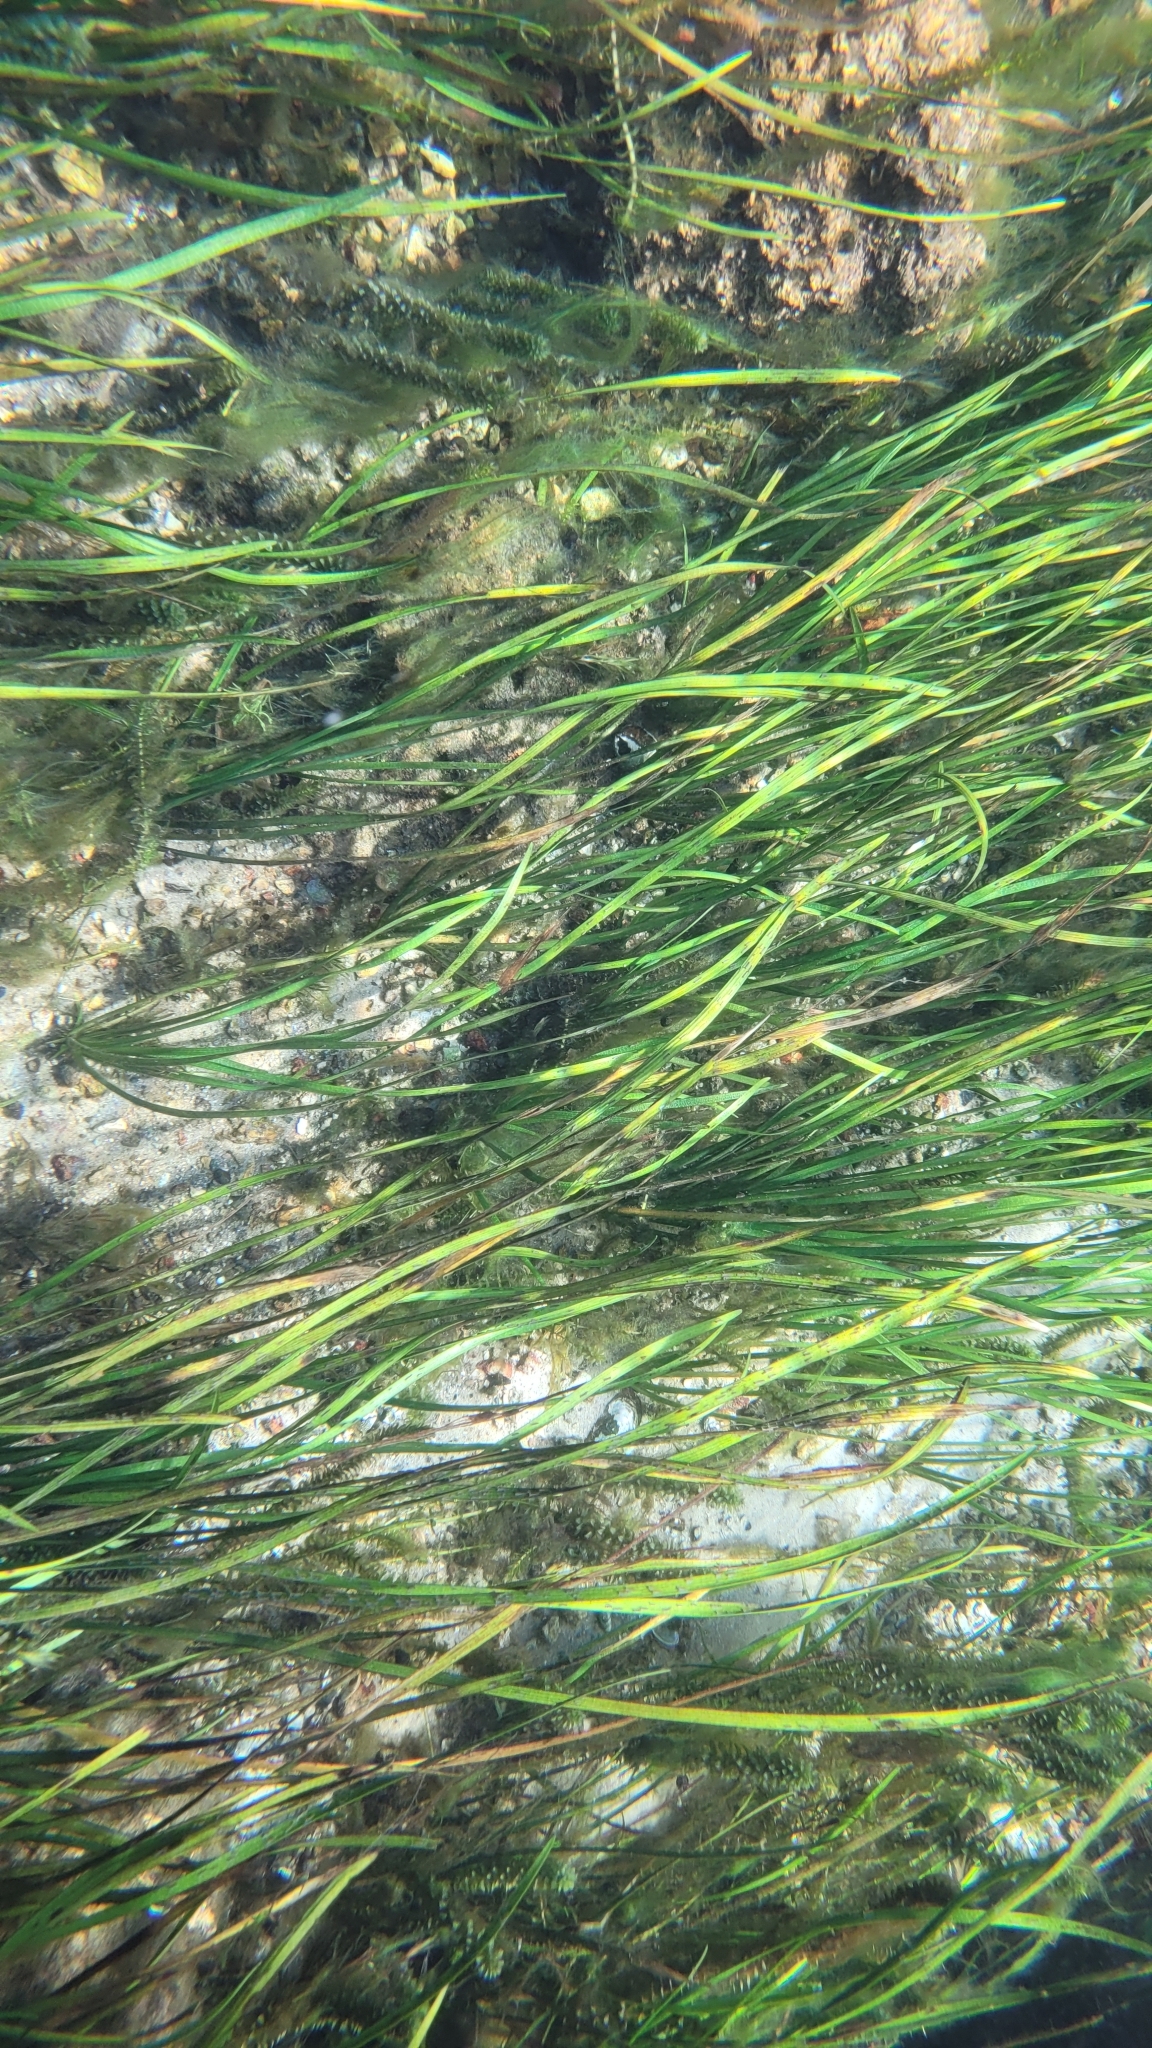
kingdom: Plantae
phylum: Tracheophyta
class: Liliopsida
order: Alismatales
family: Hydrocharitaceae
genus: Hydrilla
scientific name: Hydrilla verticillata
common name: Florida-elodea
